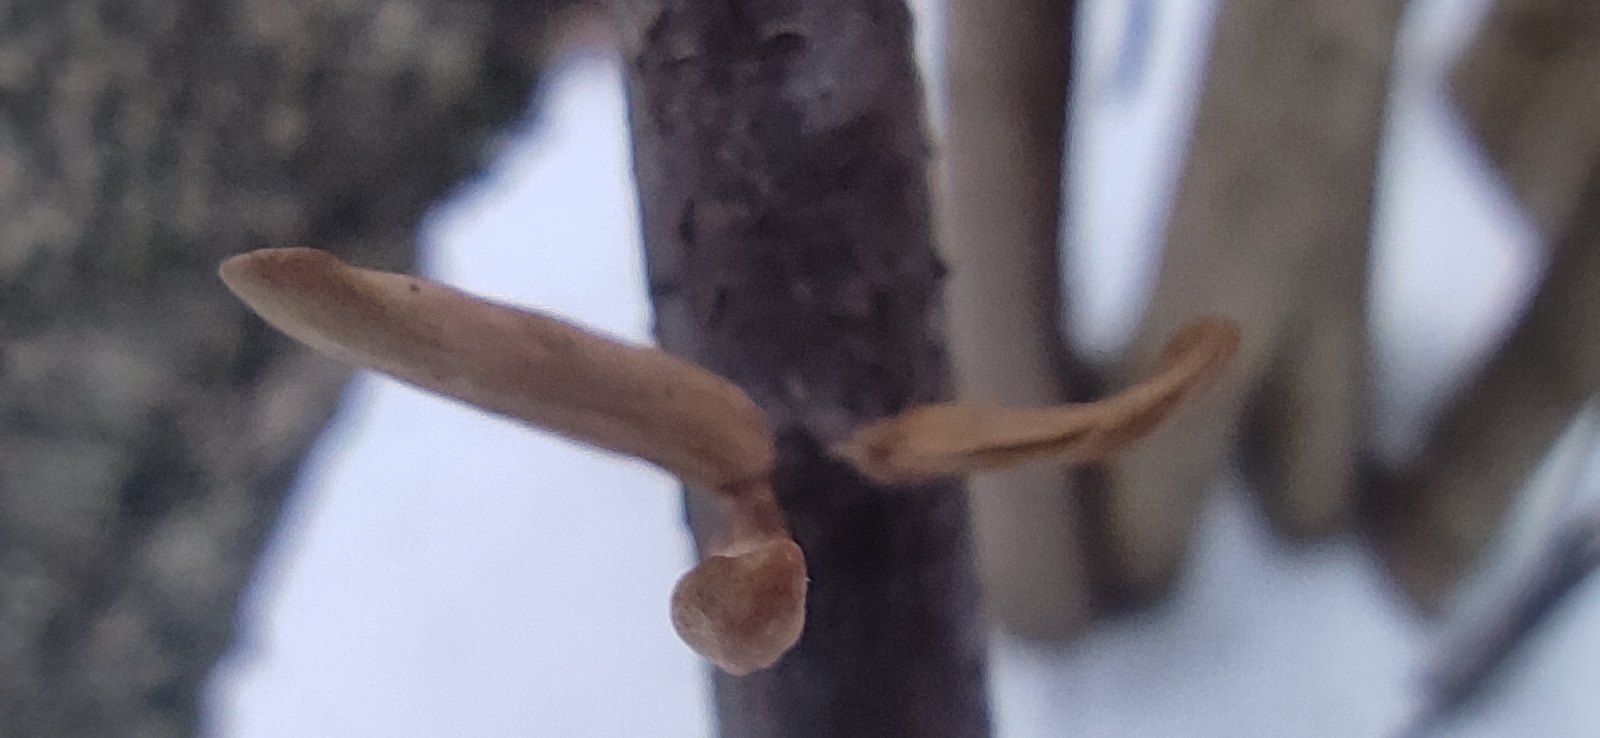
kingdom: Fungi
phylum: Basidiomycota
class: Agaricomycetes
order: Agaricales
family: Typhulaceae
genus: Typhula
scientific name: Typhula contorta
